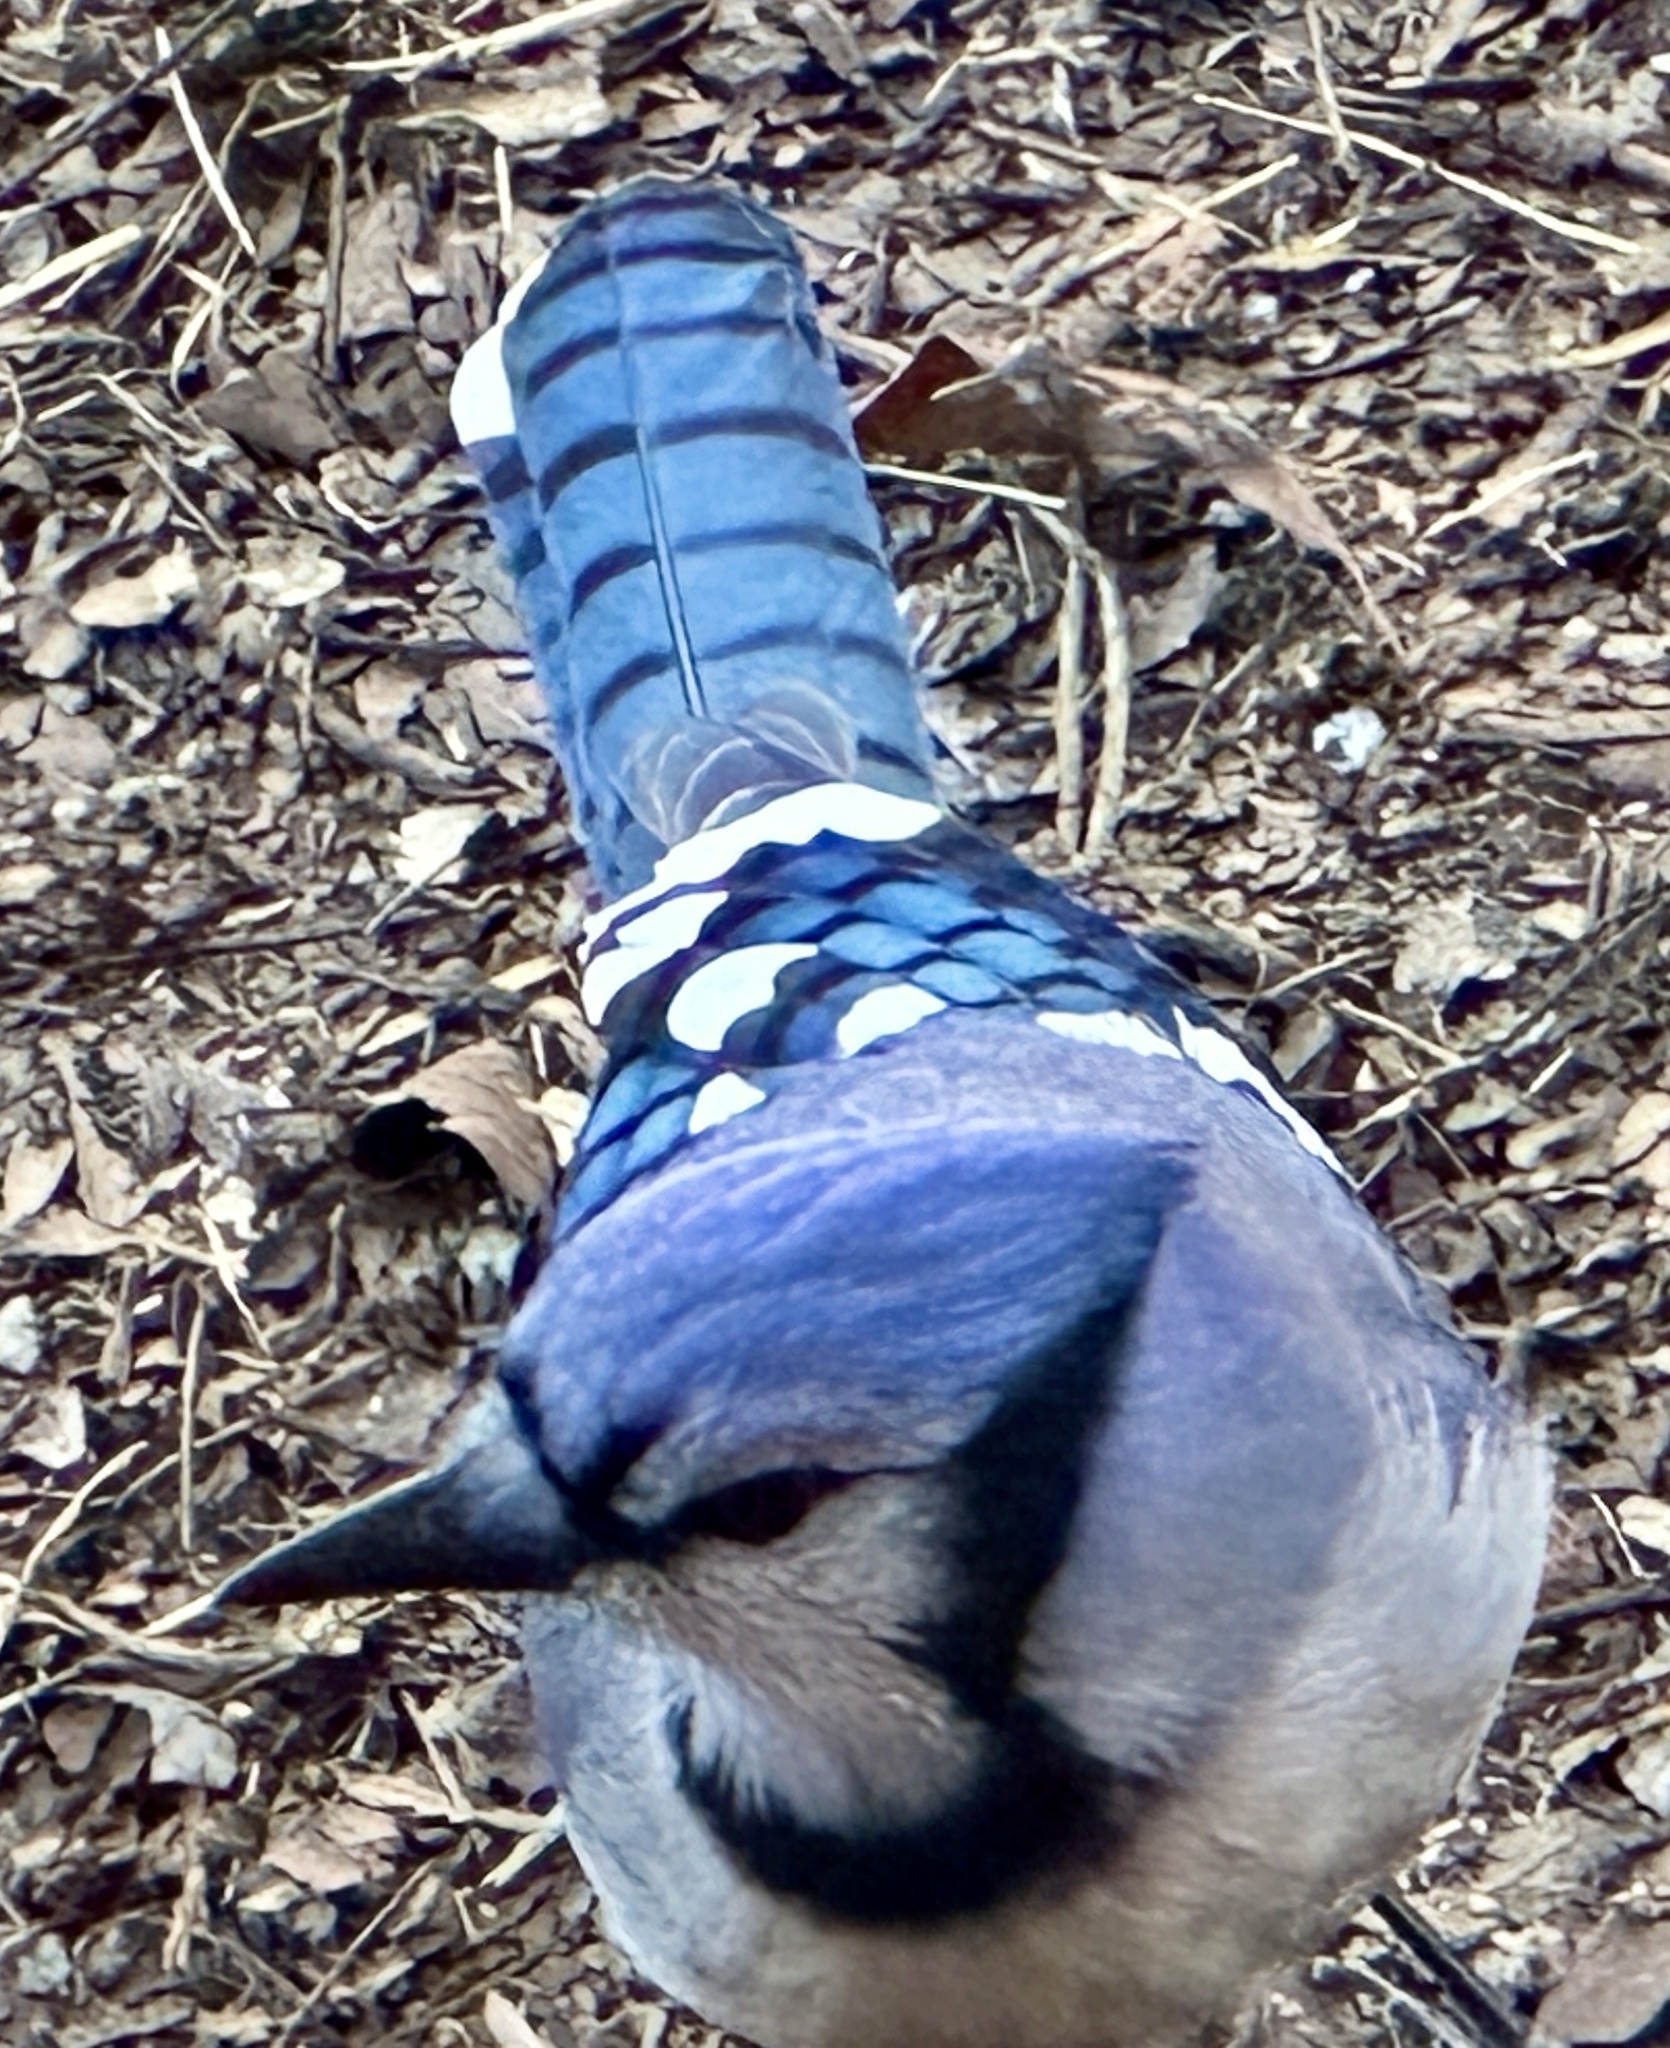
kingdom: Animalia
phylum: Chordata
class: Aves
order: Passeriformes
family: Corvidae
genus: Cyanocitta
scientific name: Cyanocitta cristata
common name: Blue jay
